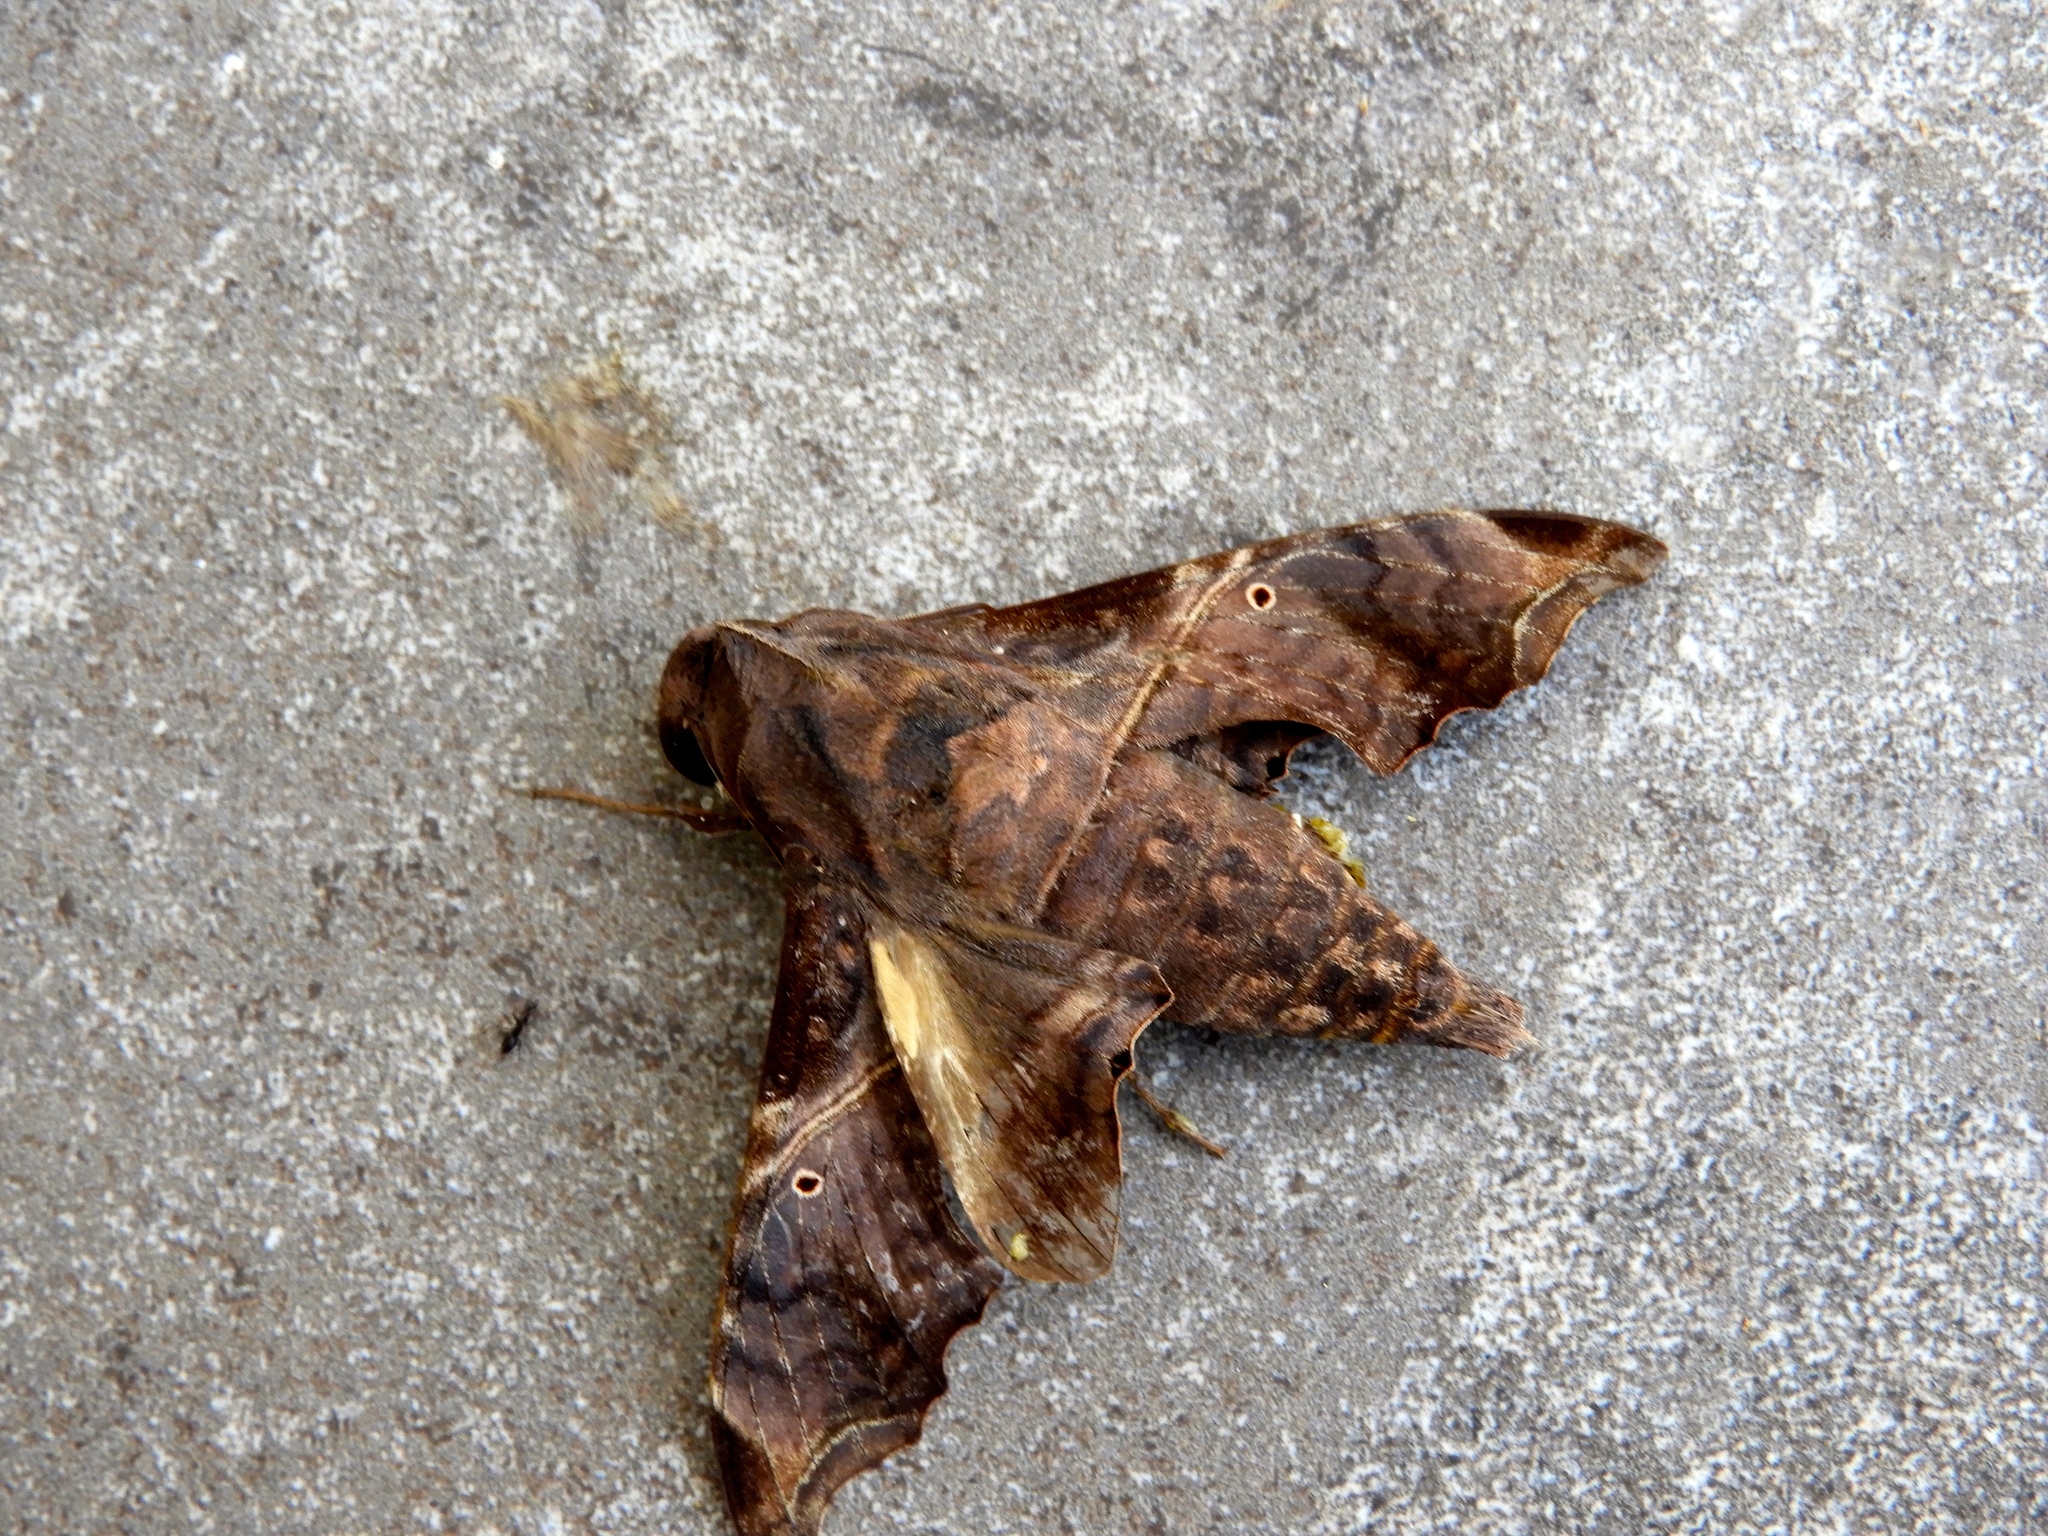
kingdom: Animalia
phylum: Arthropoda
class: Insecta
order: Lepidoptera
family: Sphingidae
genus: Enyo
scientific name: Enyo lugubris
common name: Mournful sphinx
